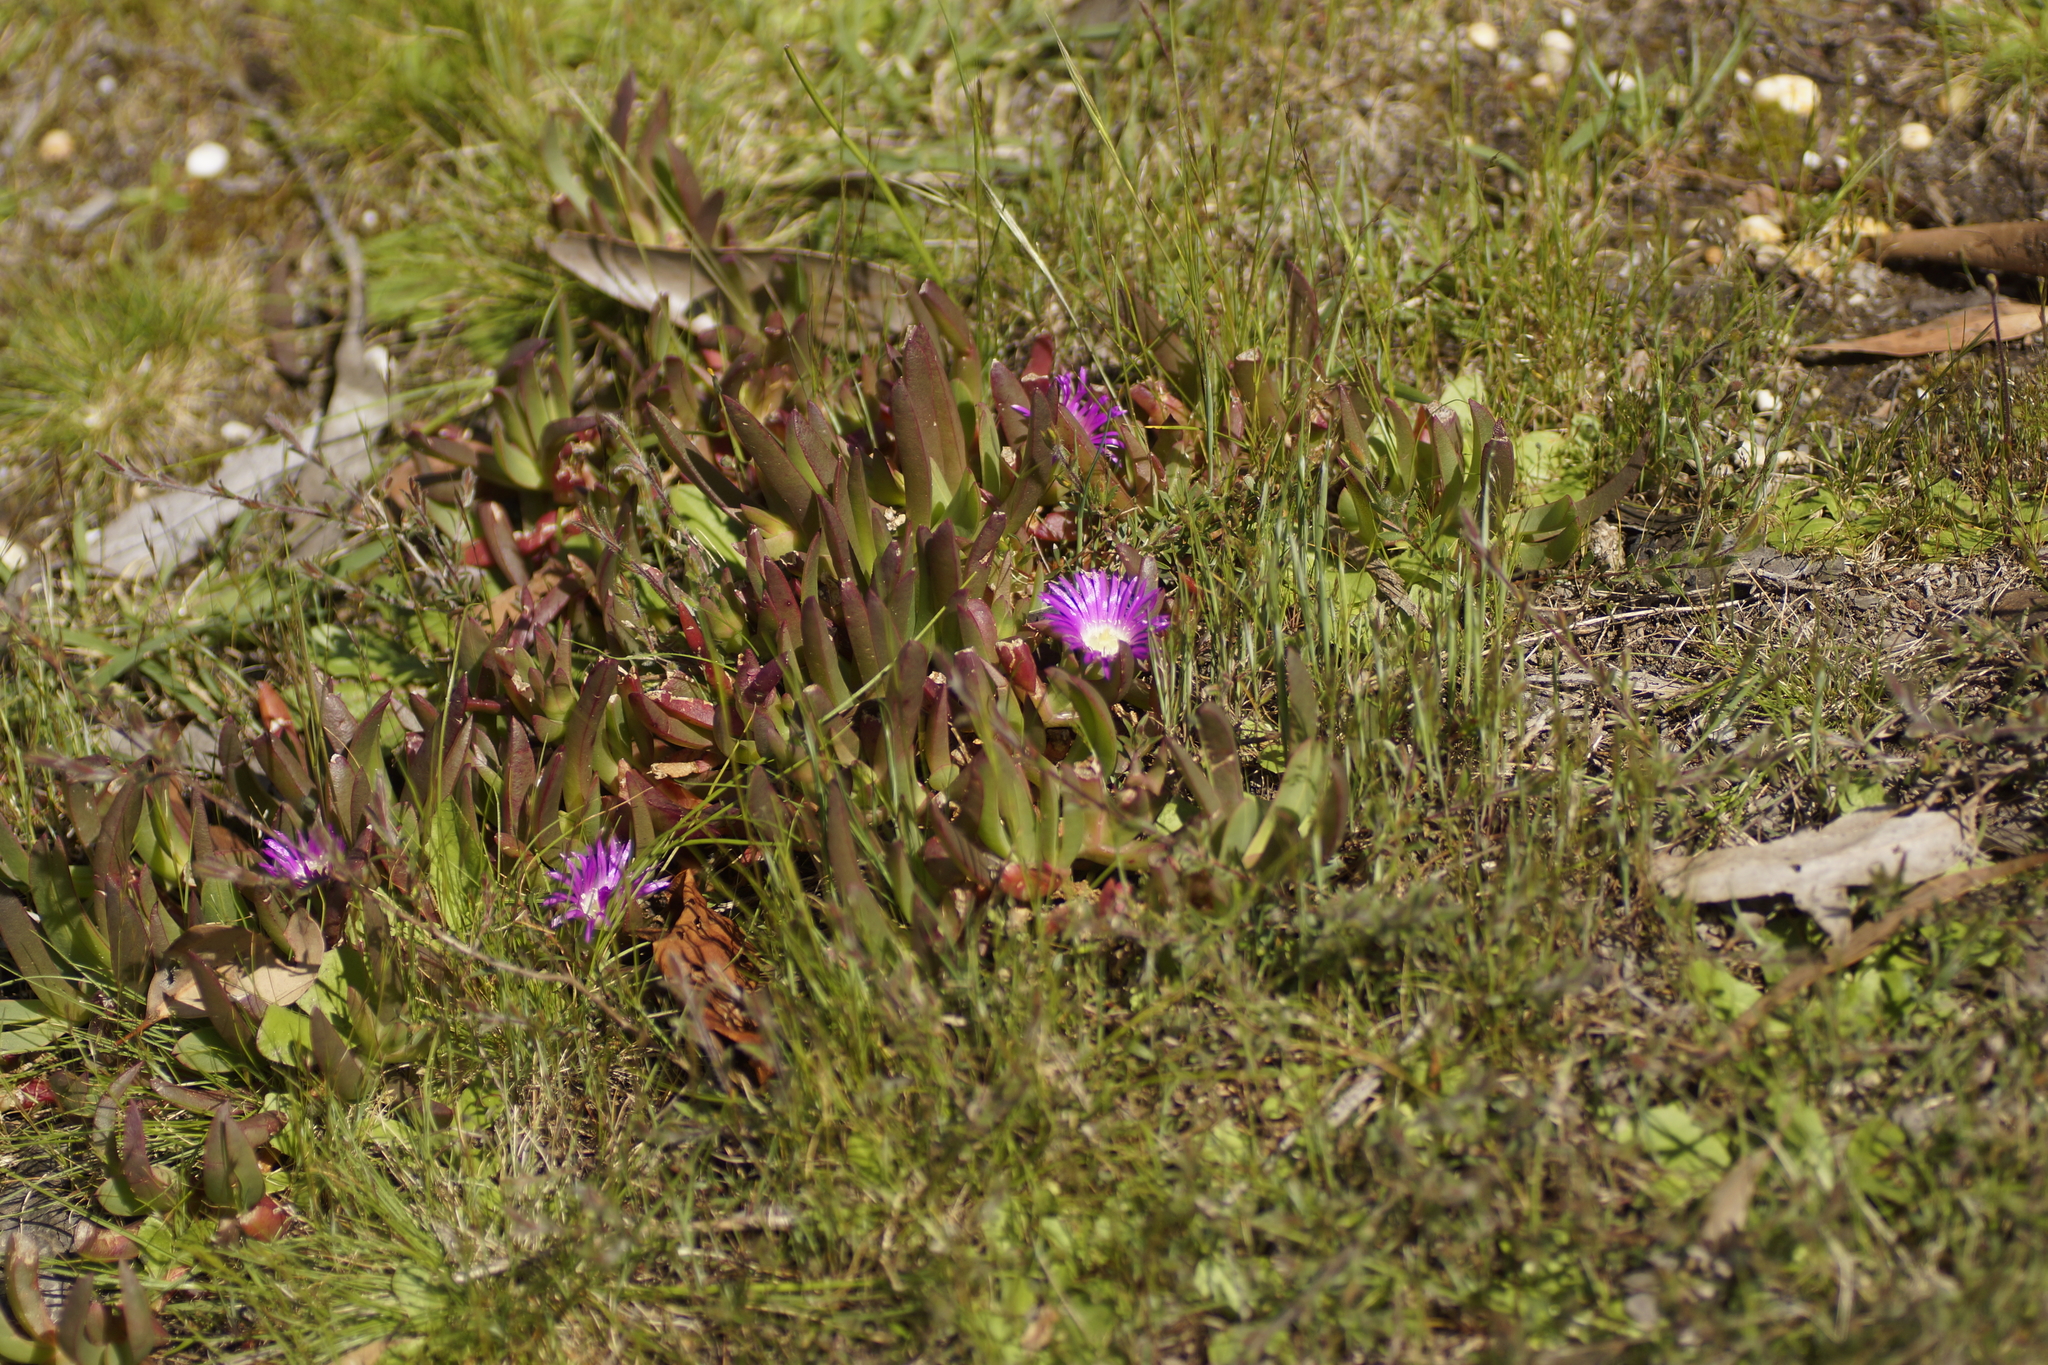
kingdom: Plantae
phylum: Tracheophyta
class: Magnoliopsida
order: Caryophyllales
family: Aizoaceae
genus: Carpobrotus
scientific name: Carpobrotus modestus
